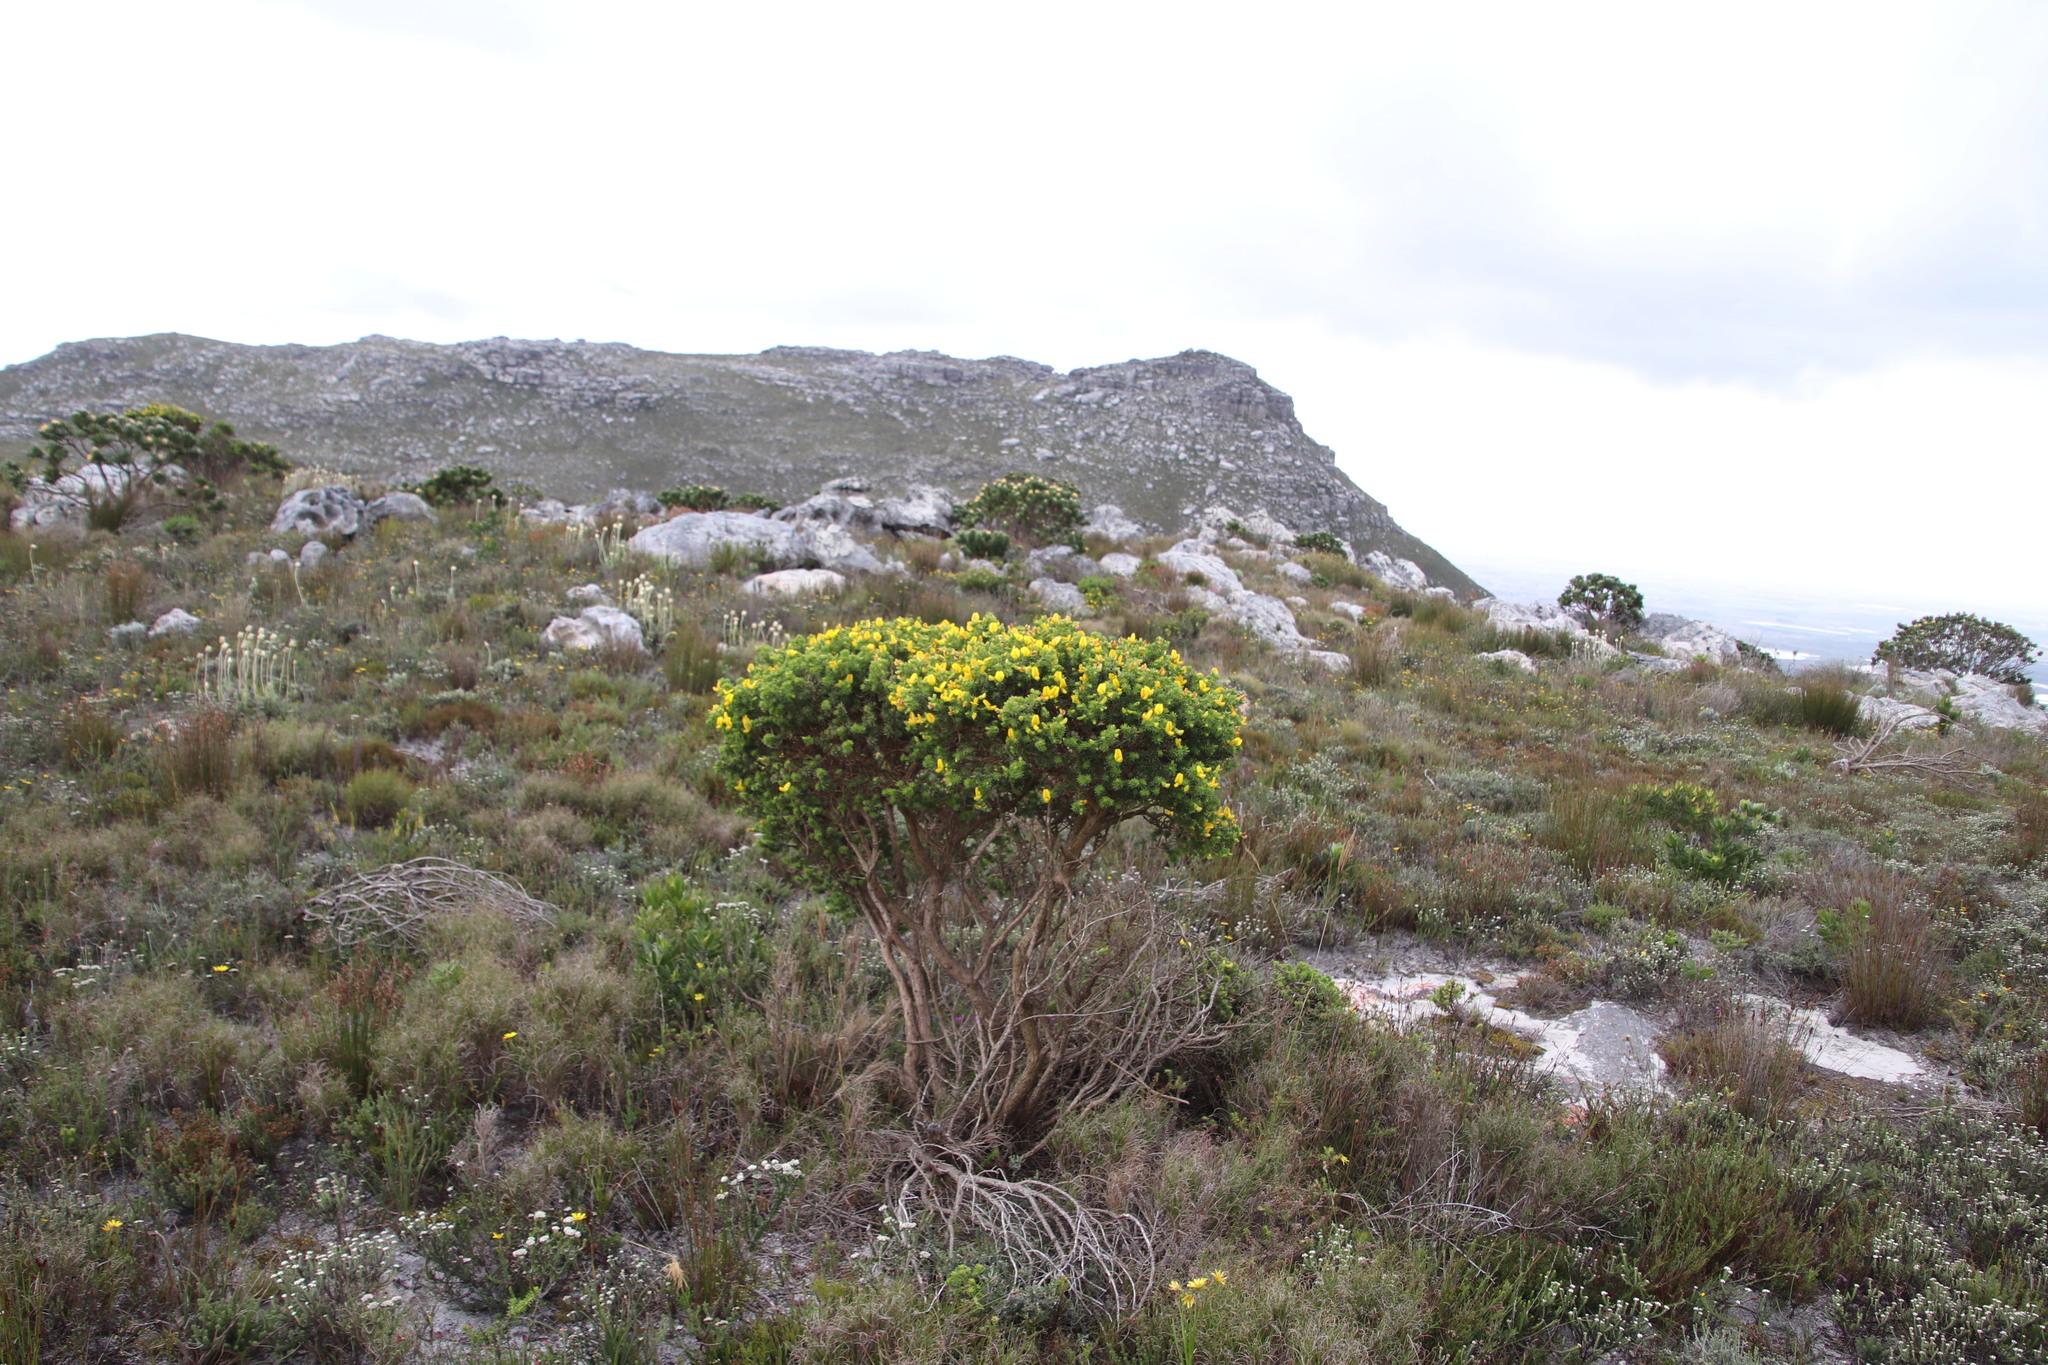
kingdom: Plantae
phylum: Tracheophyta
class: Magnoliopsida
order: Fabales
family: Fabaceae
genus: Aspalathus
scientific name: Aspalathus capensis
